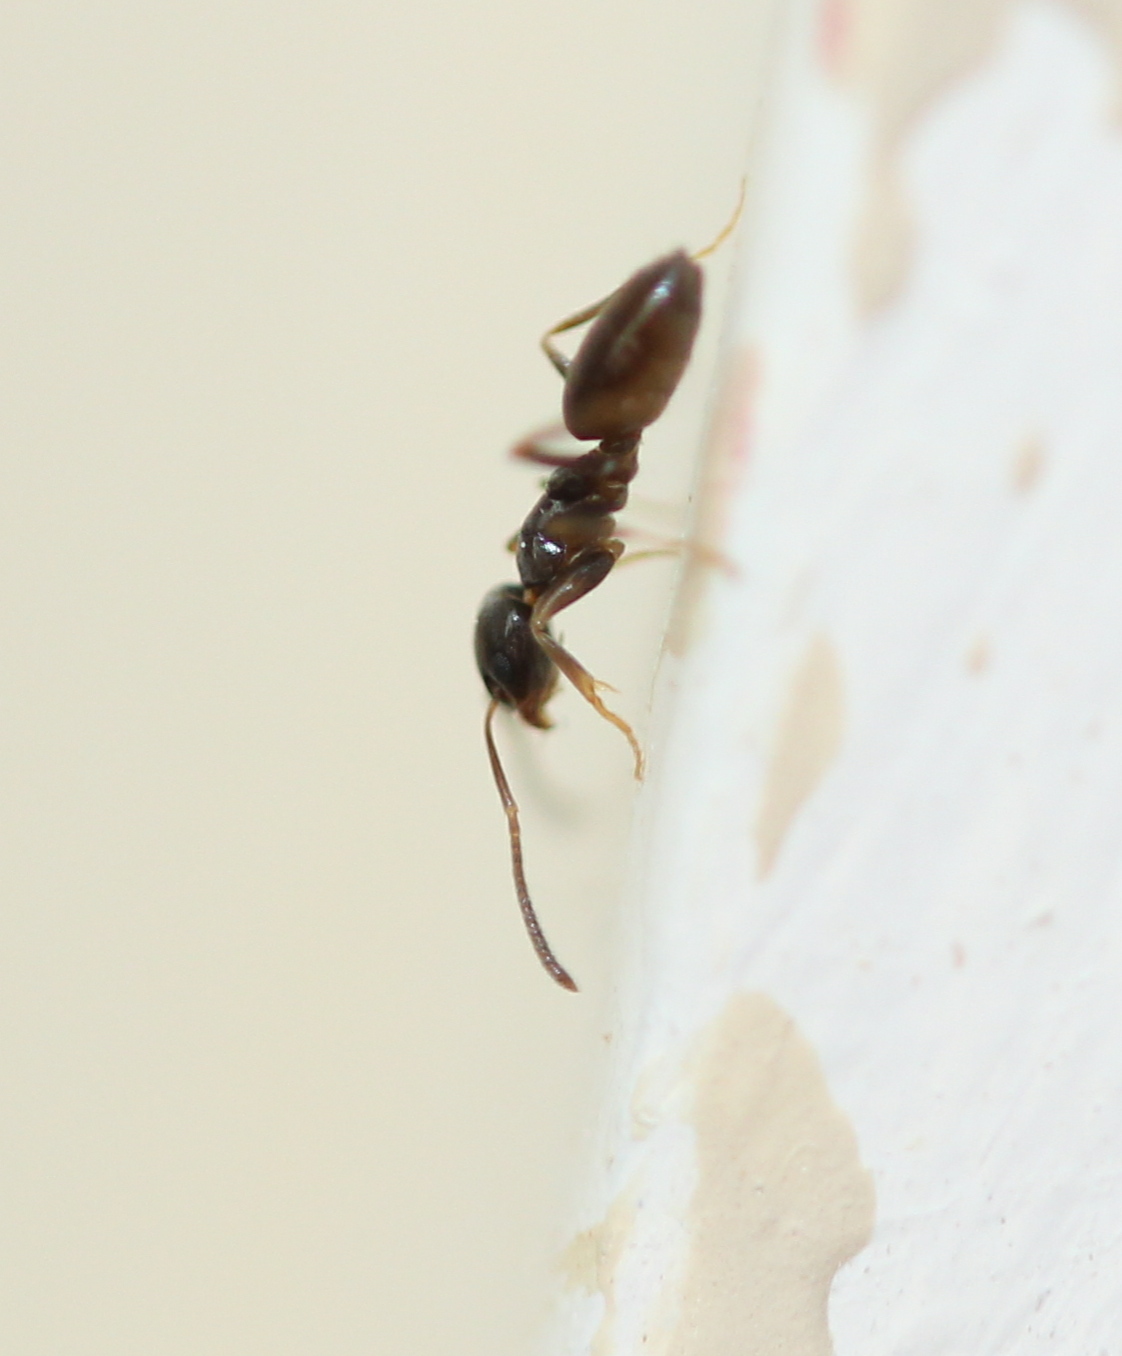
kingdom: Animalia
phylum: Arthropoda
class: Insecta
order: Hymenoptera
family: Formicidae
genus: Tapinoma
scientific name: Tapinoma sessile
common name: Odorous house ant
